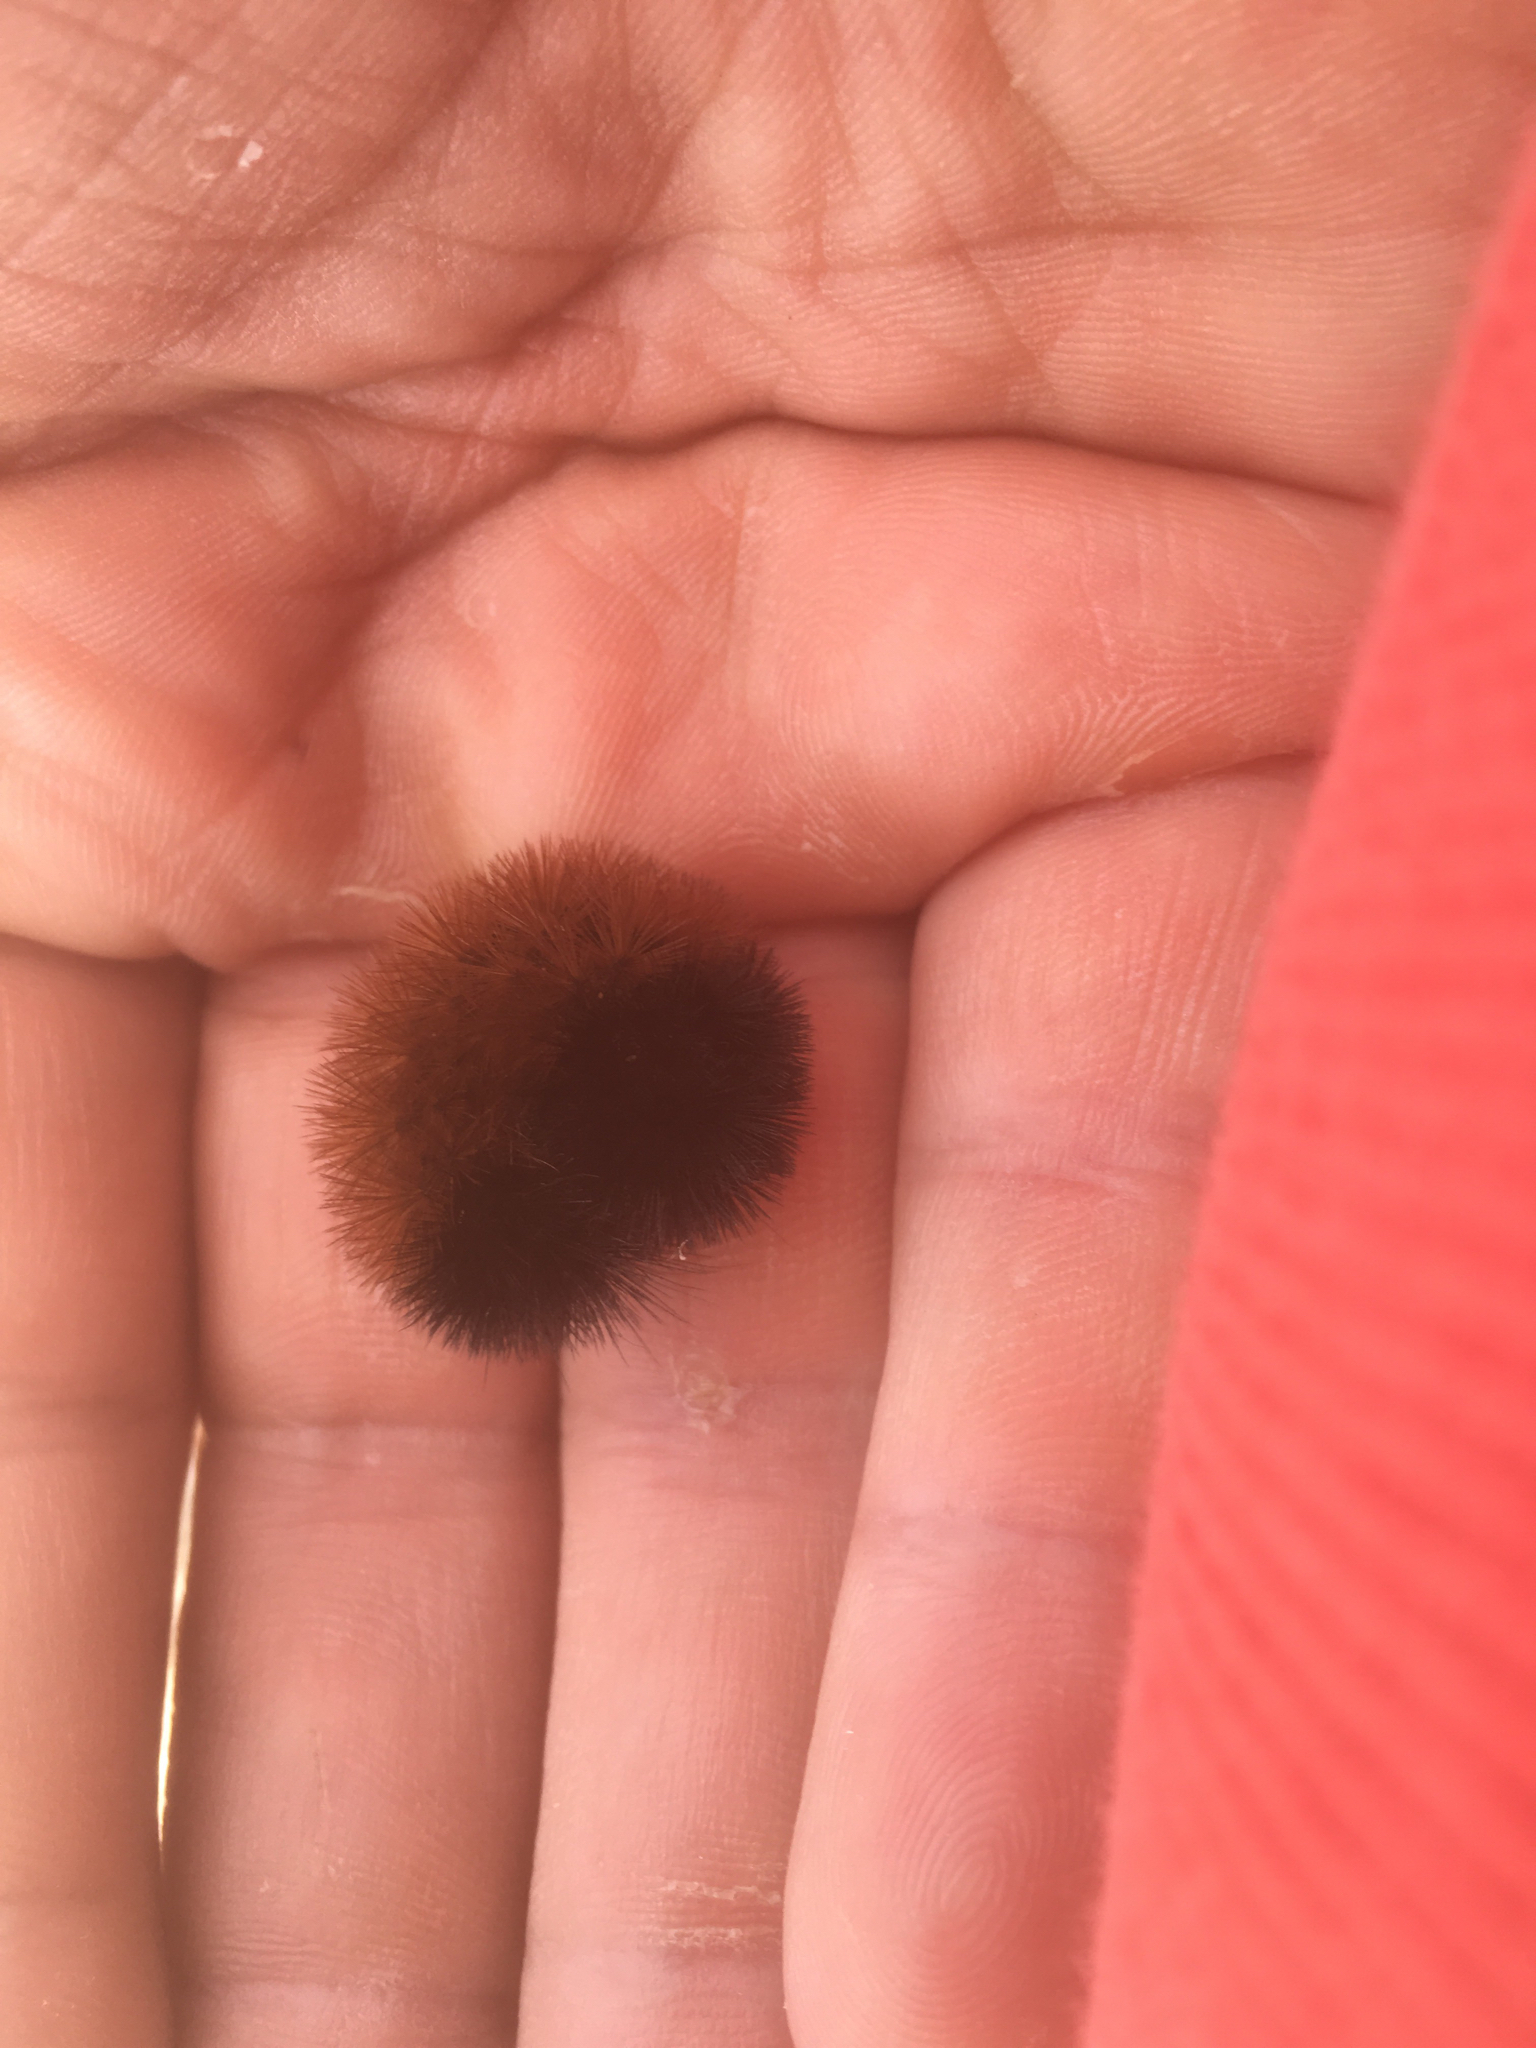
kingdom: Animalia
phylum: Arthropoda
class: Insecta
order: Lepidoptera
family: Erebidae
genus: Pyrrharctia
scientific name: Pyrrharctia isabella
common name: Isabella tiger moth
